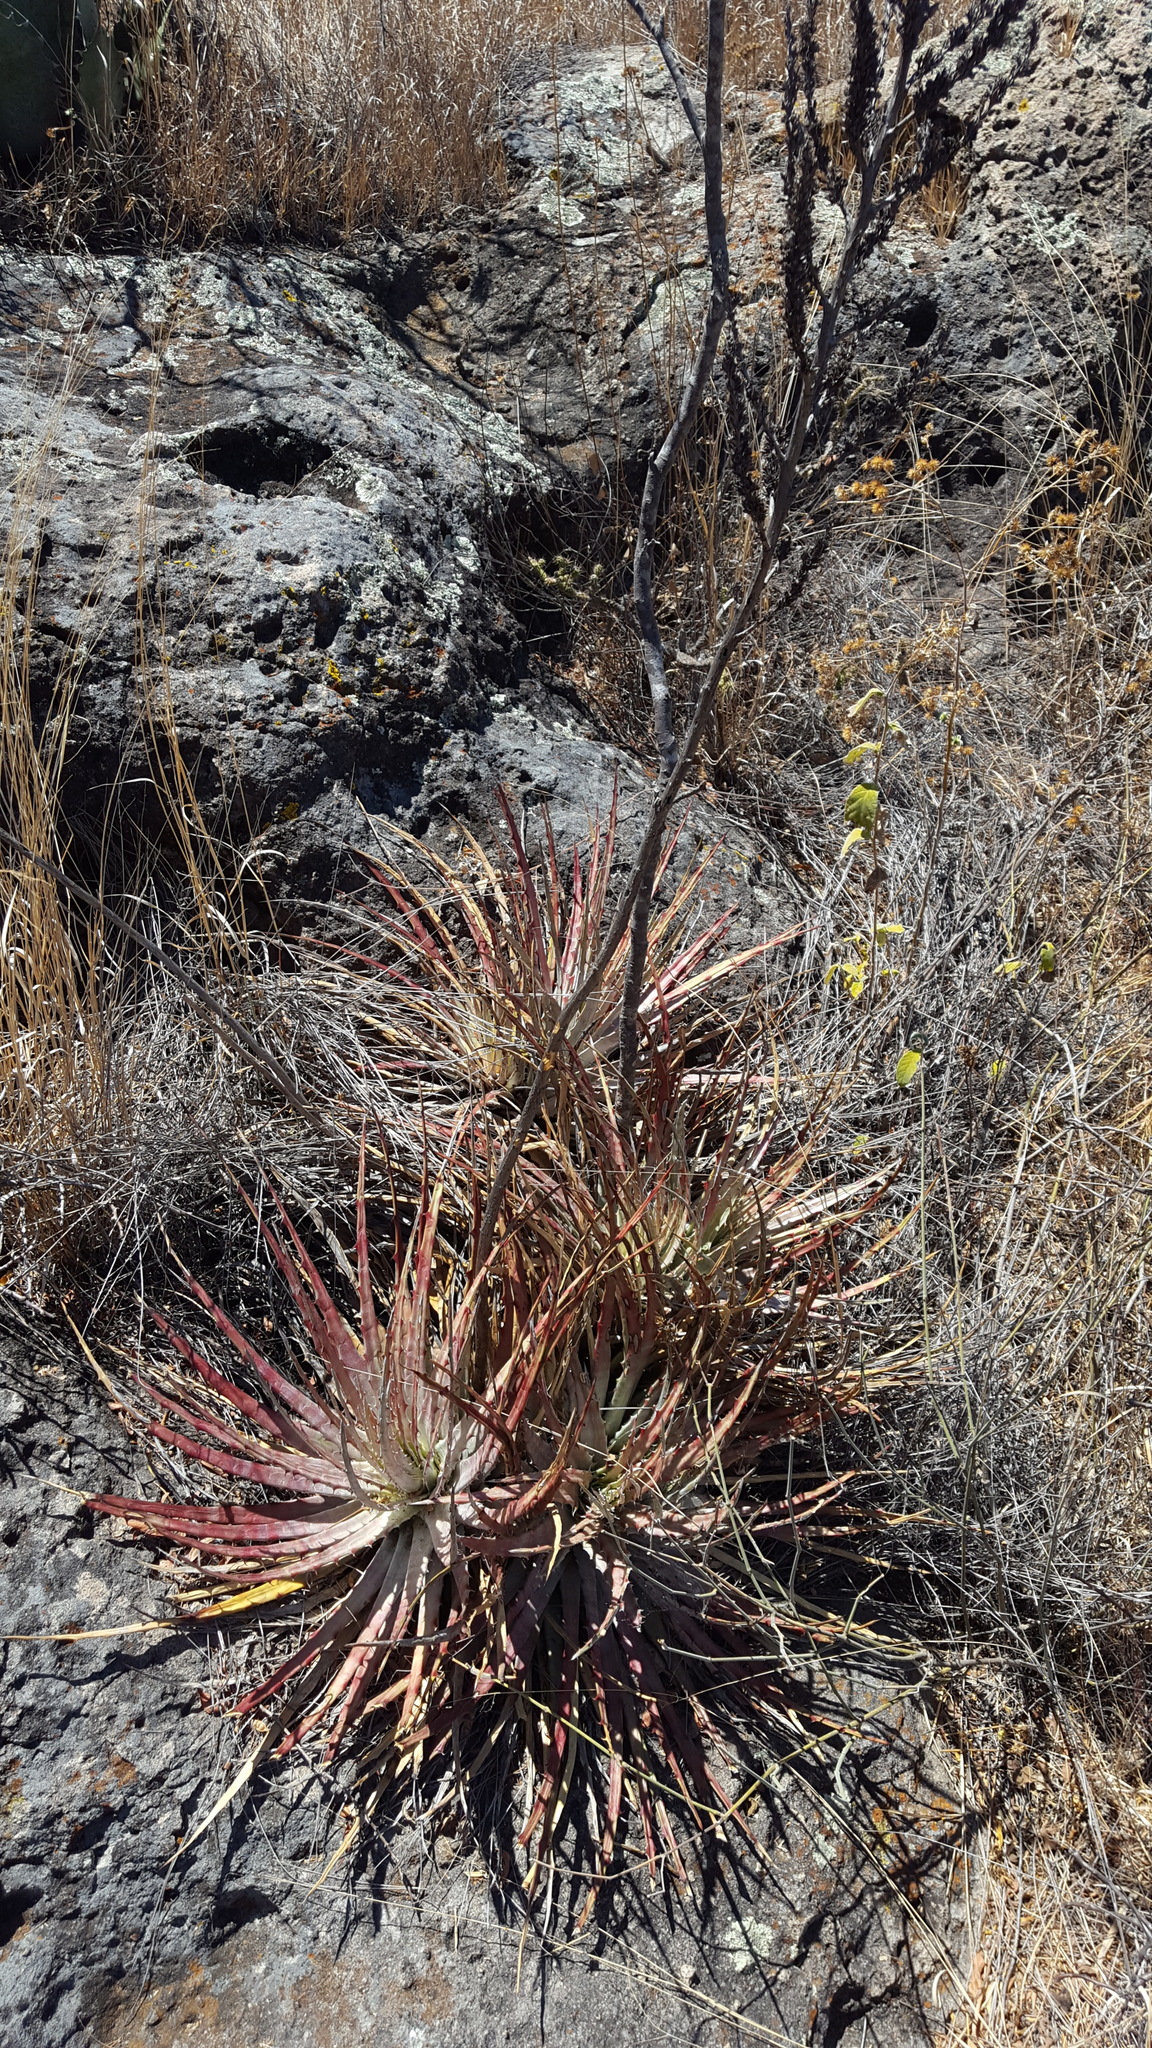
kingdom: Plantae
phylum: Tracheophyta
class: Liliopsida
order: Poales
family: Bromeliaceae
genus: Hechtia
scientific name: Hechtia pringlei
